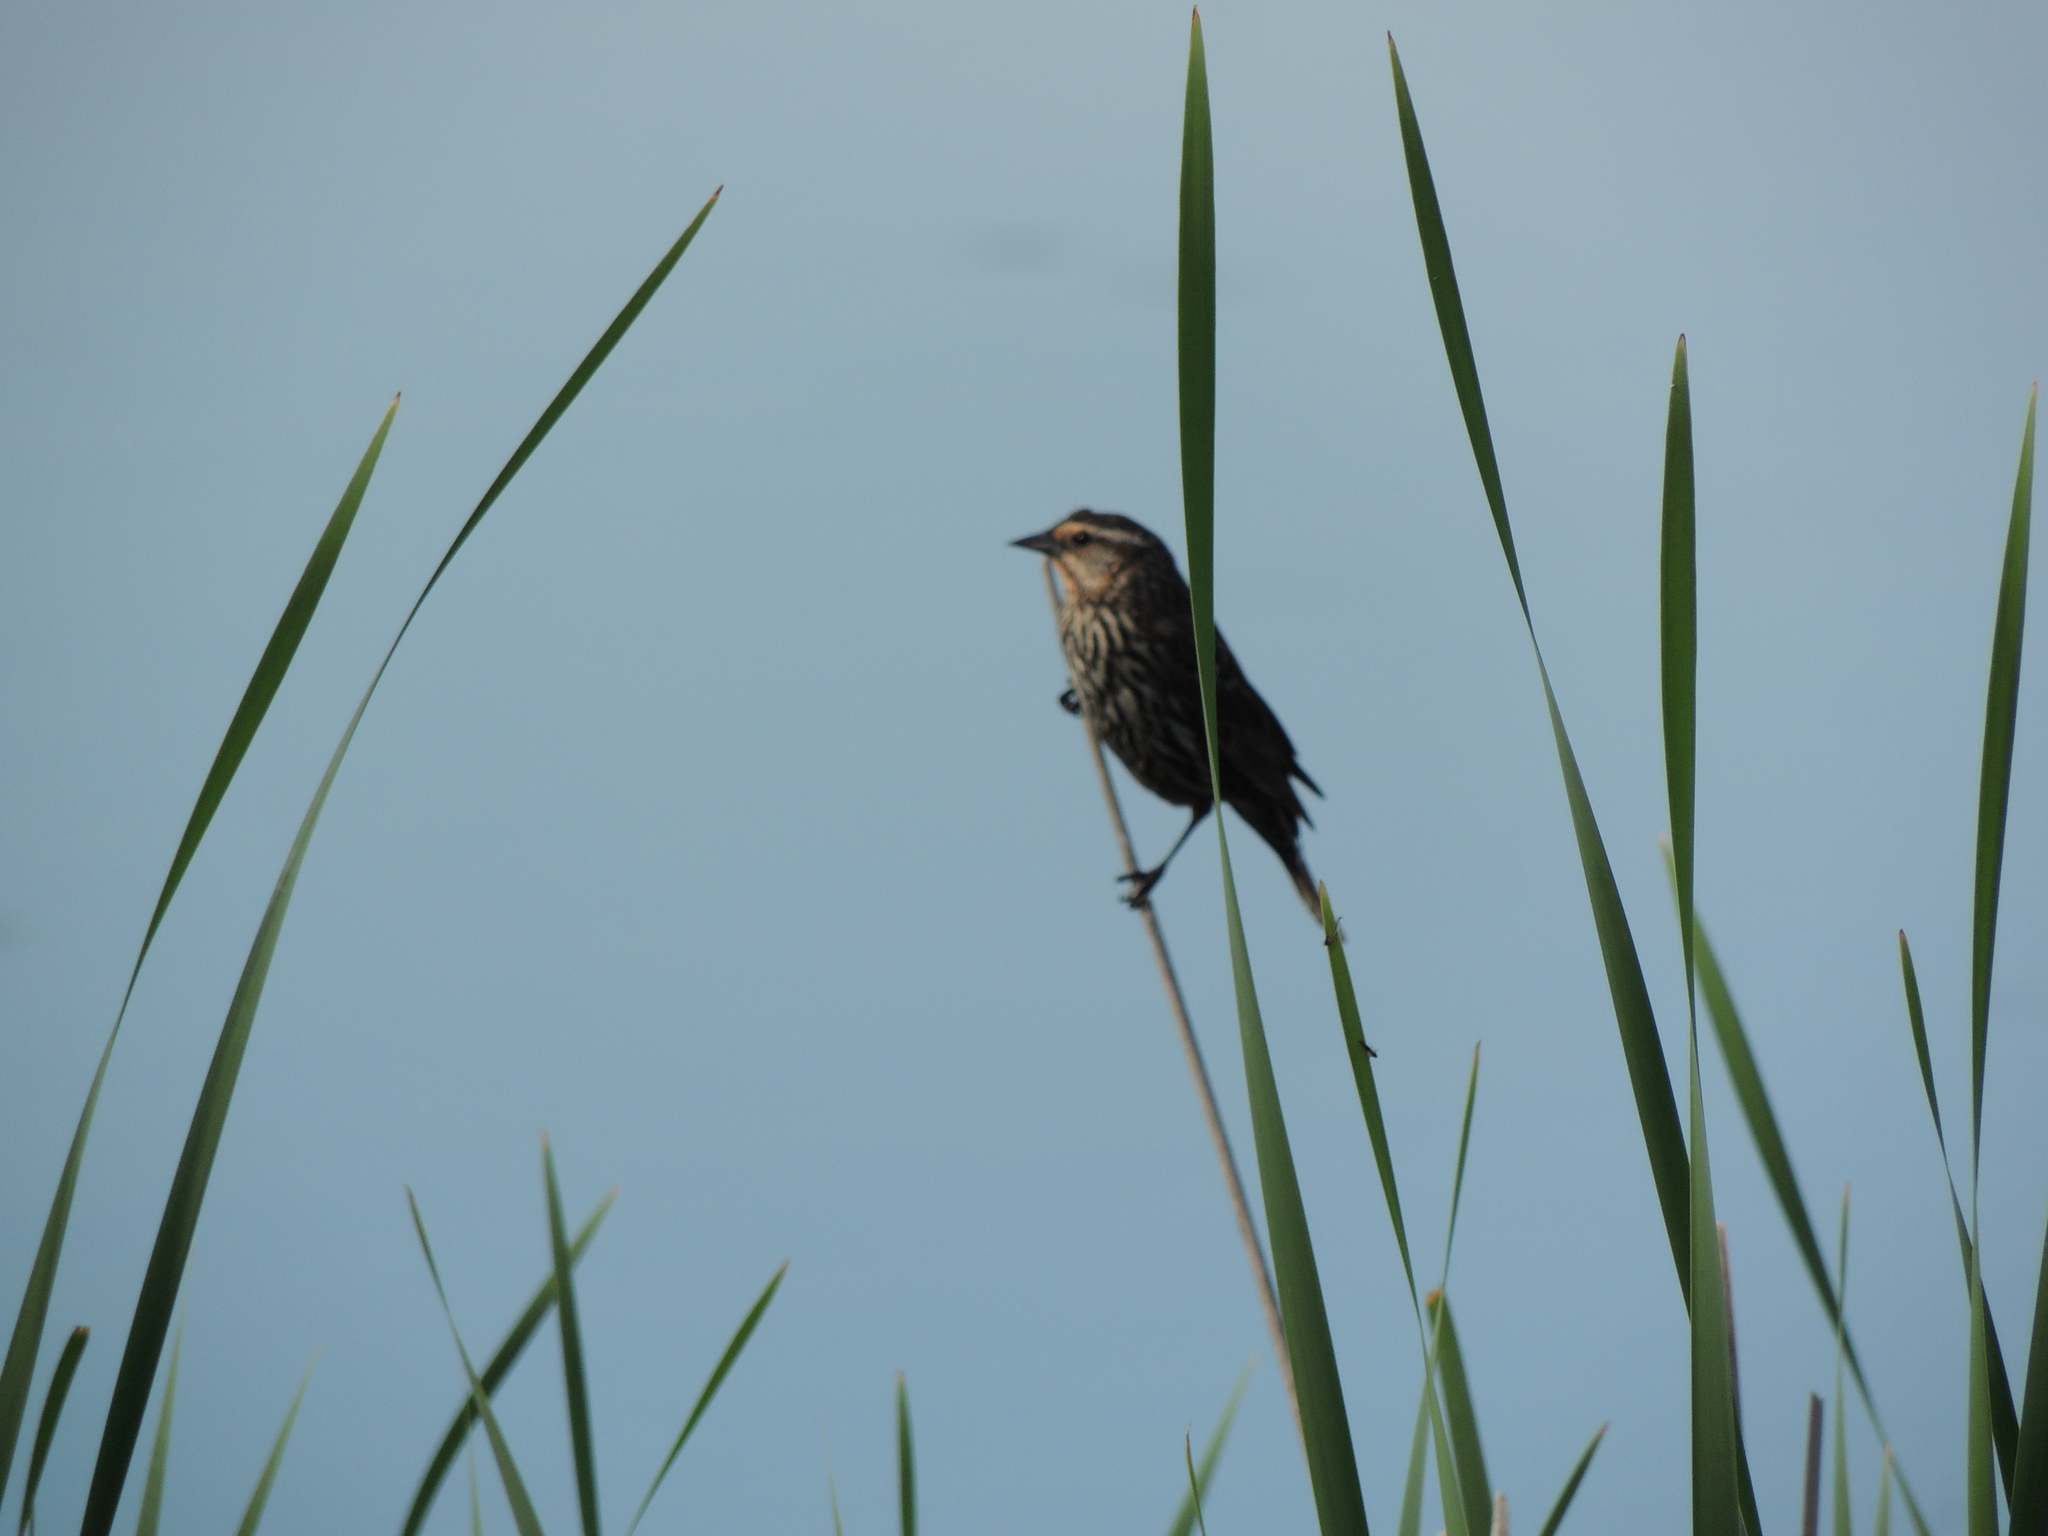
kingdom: Animalia
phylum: Chordata
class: Aves
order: Passeriformes
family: Icteridae
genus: Agelaius
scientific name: Agelaius phoeniceus
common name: Red-winged blackbird
